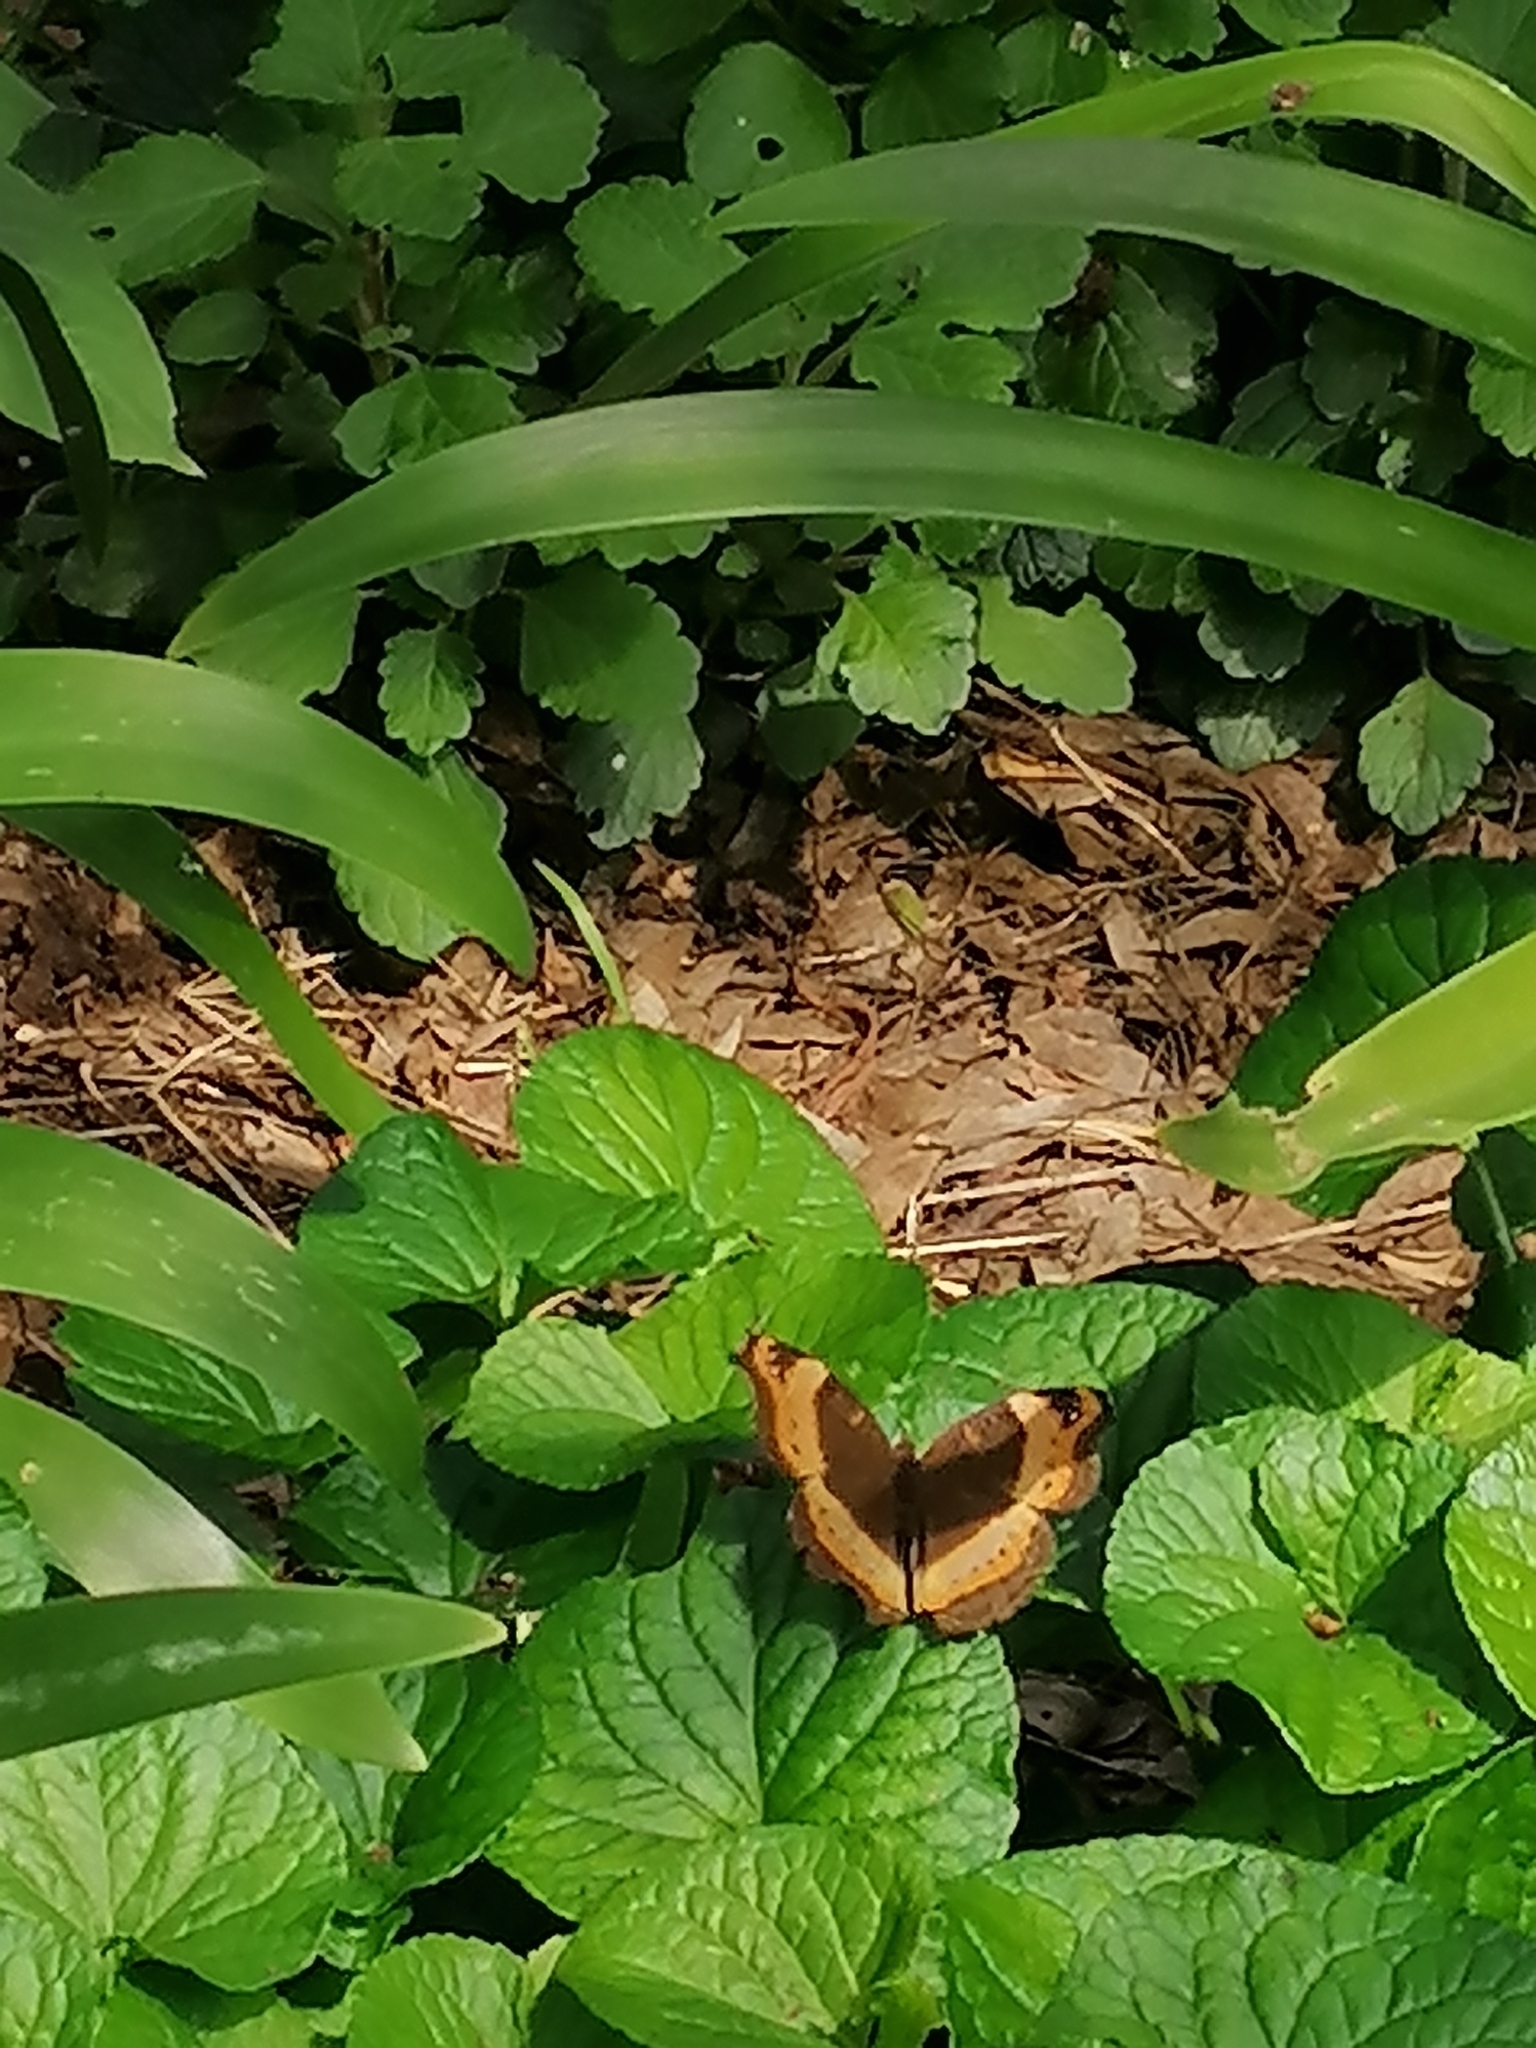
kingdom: Animalia
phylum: Arthropoda
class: Insecta
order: Lepidoptera
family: Nymphalidae
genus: Junonia
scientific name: Junonia archesia
